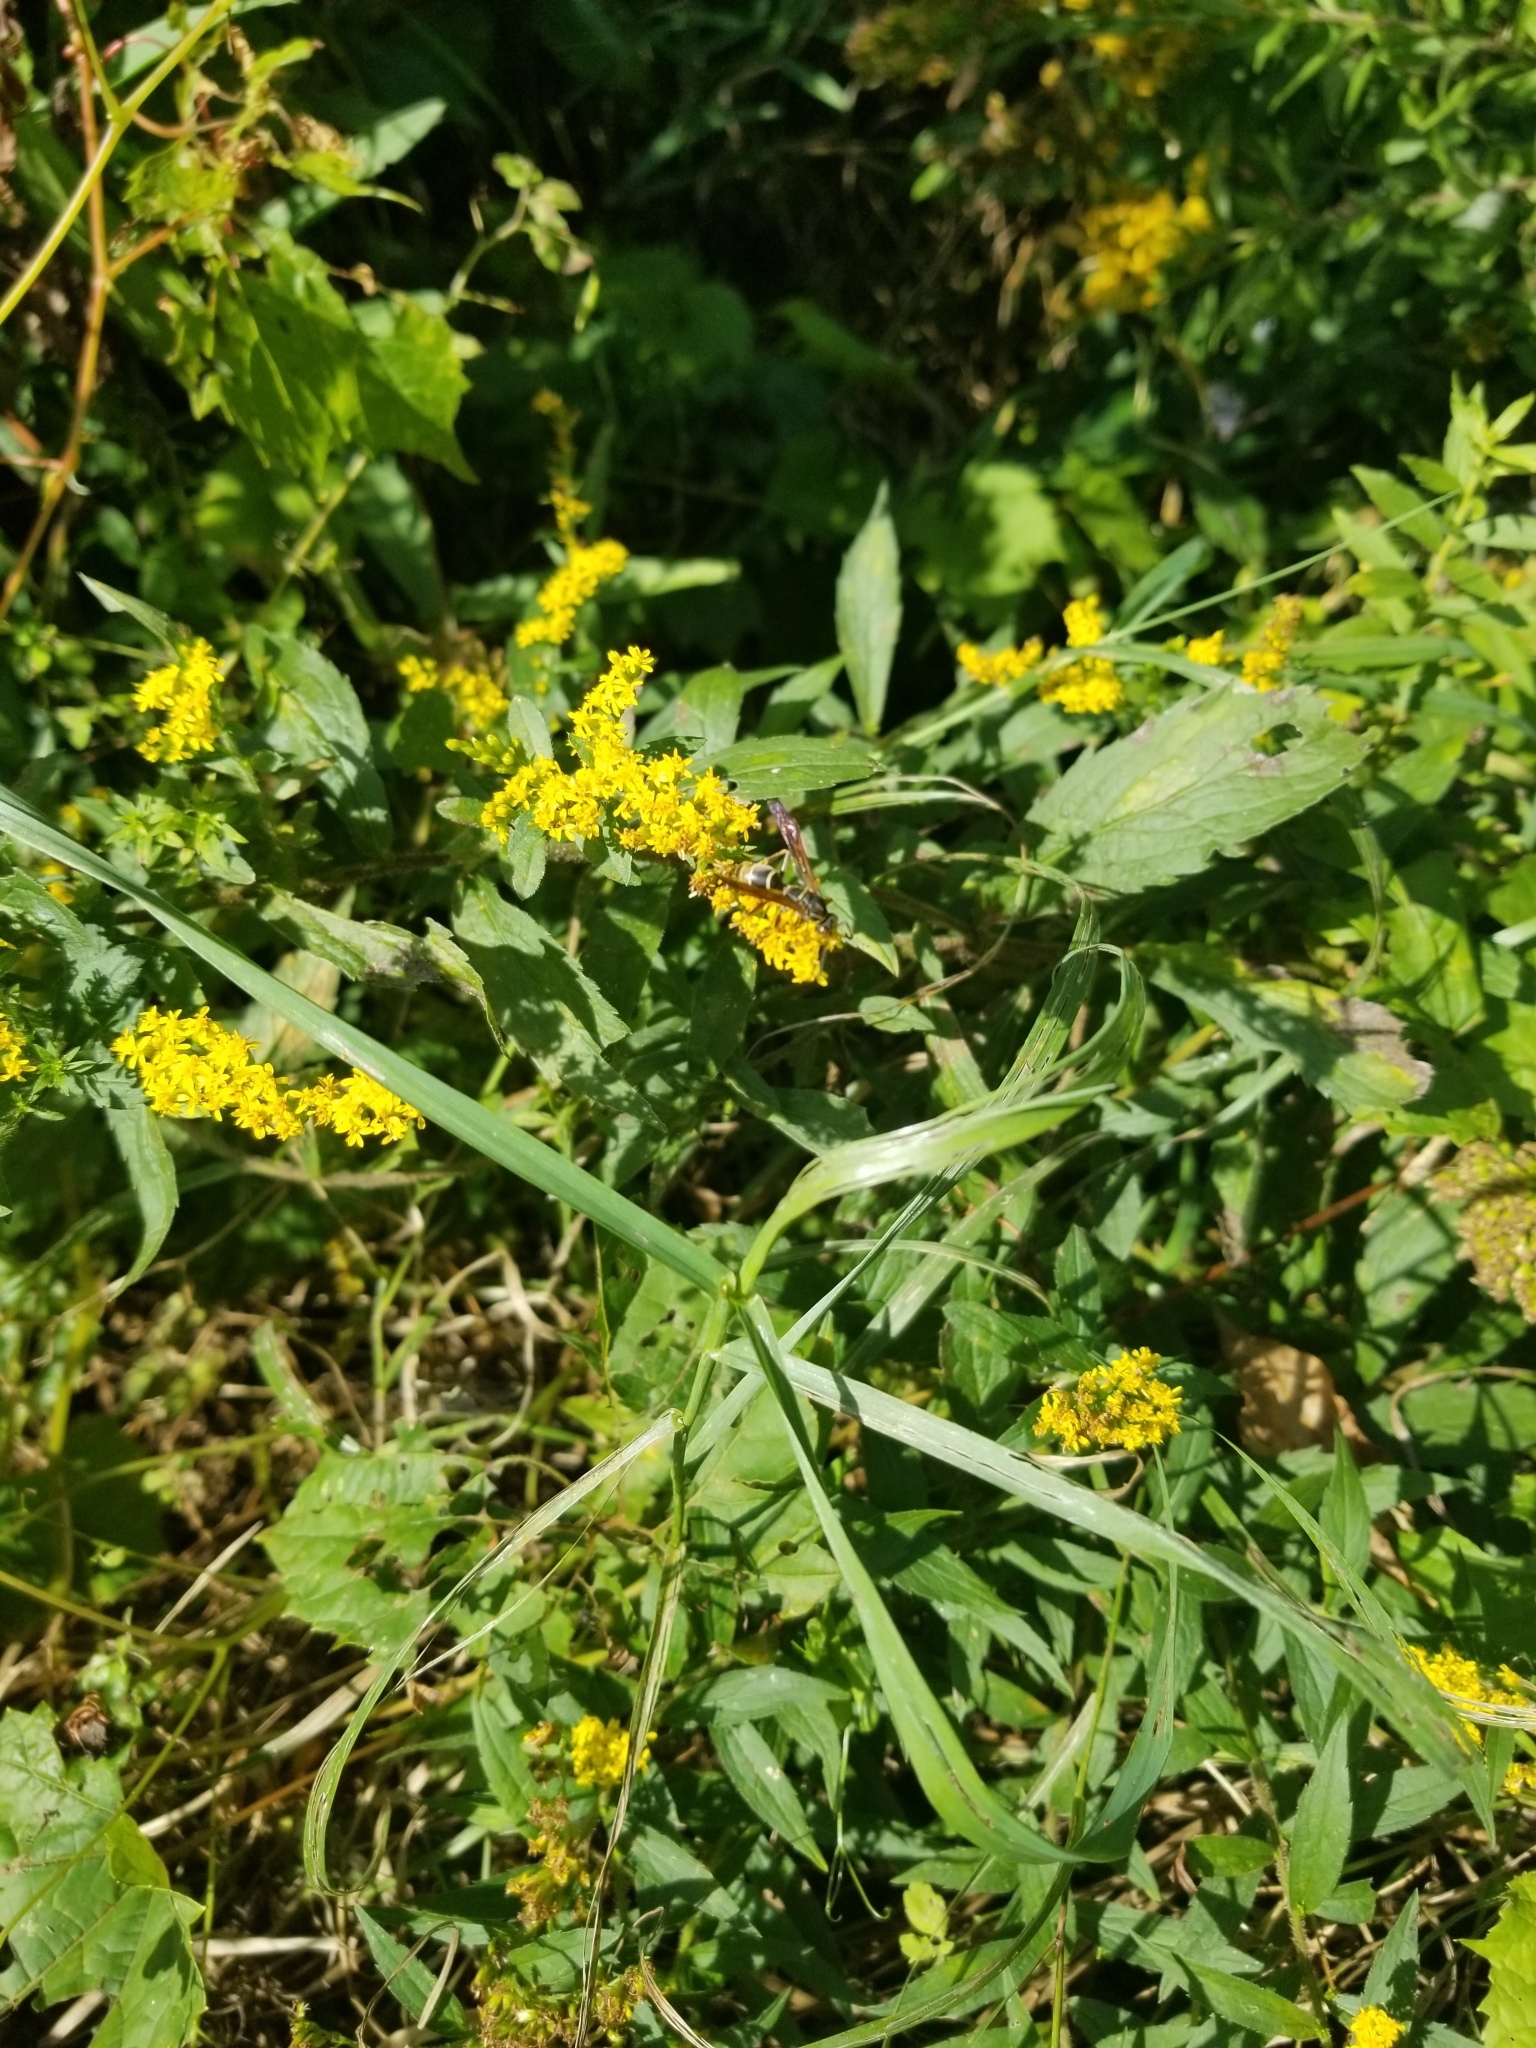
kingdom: Animalia
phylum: Arthropoda
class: Insecta
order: Hymenoptera
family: Eumenidae
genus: Polistes
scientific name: Polistes fuscatus
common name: Dark paper wasp
